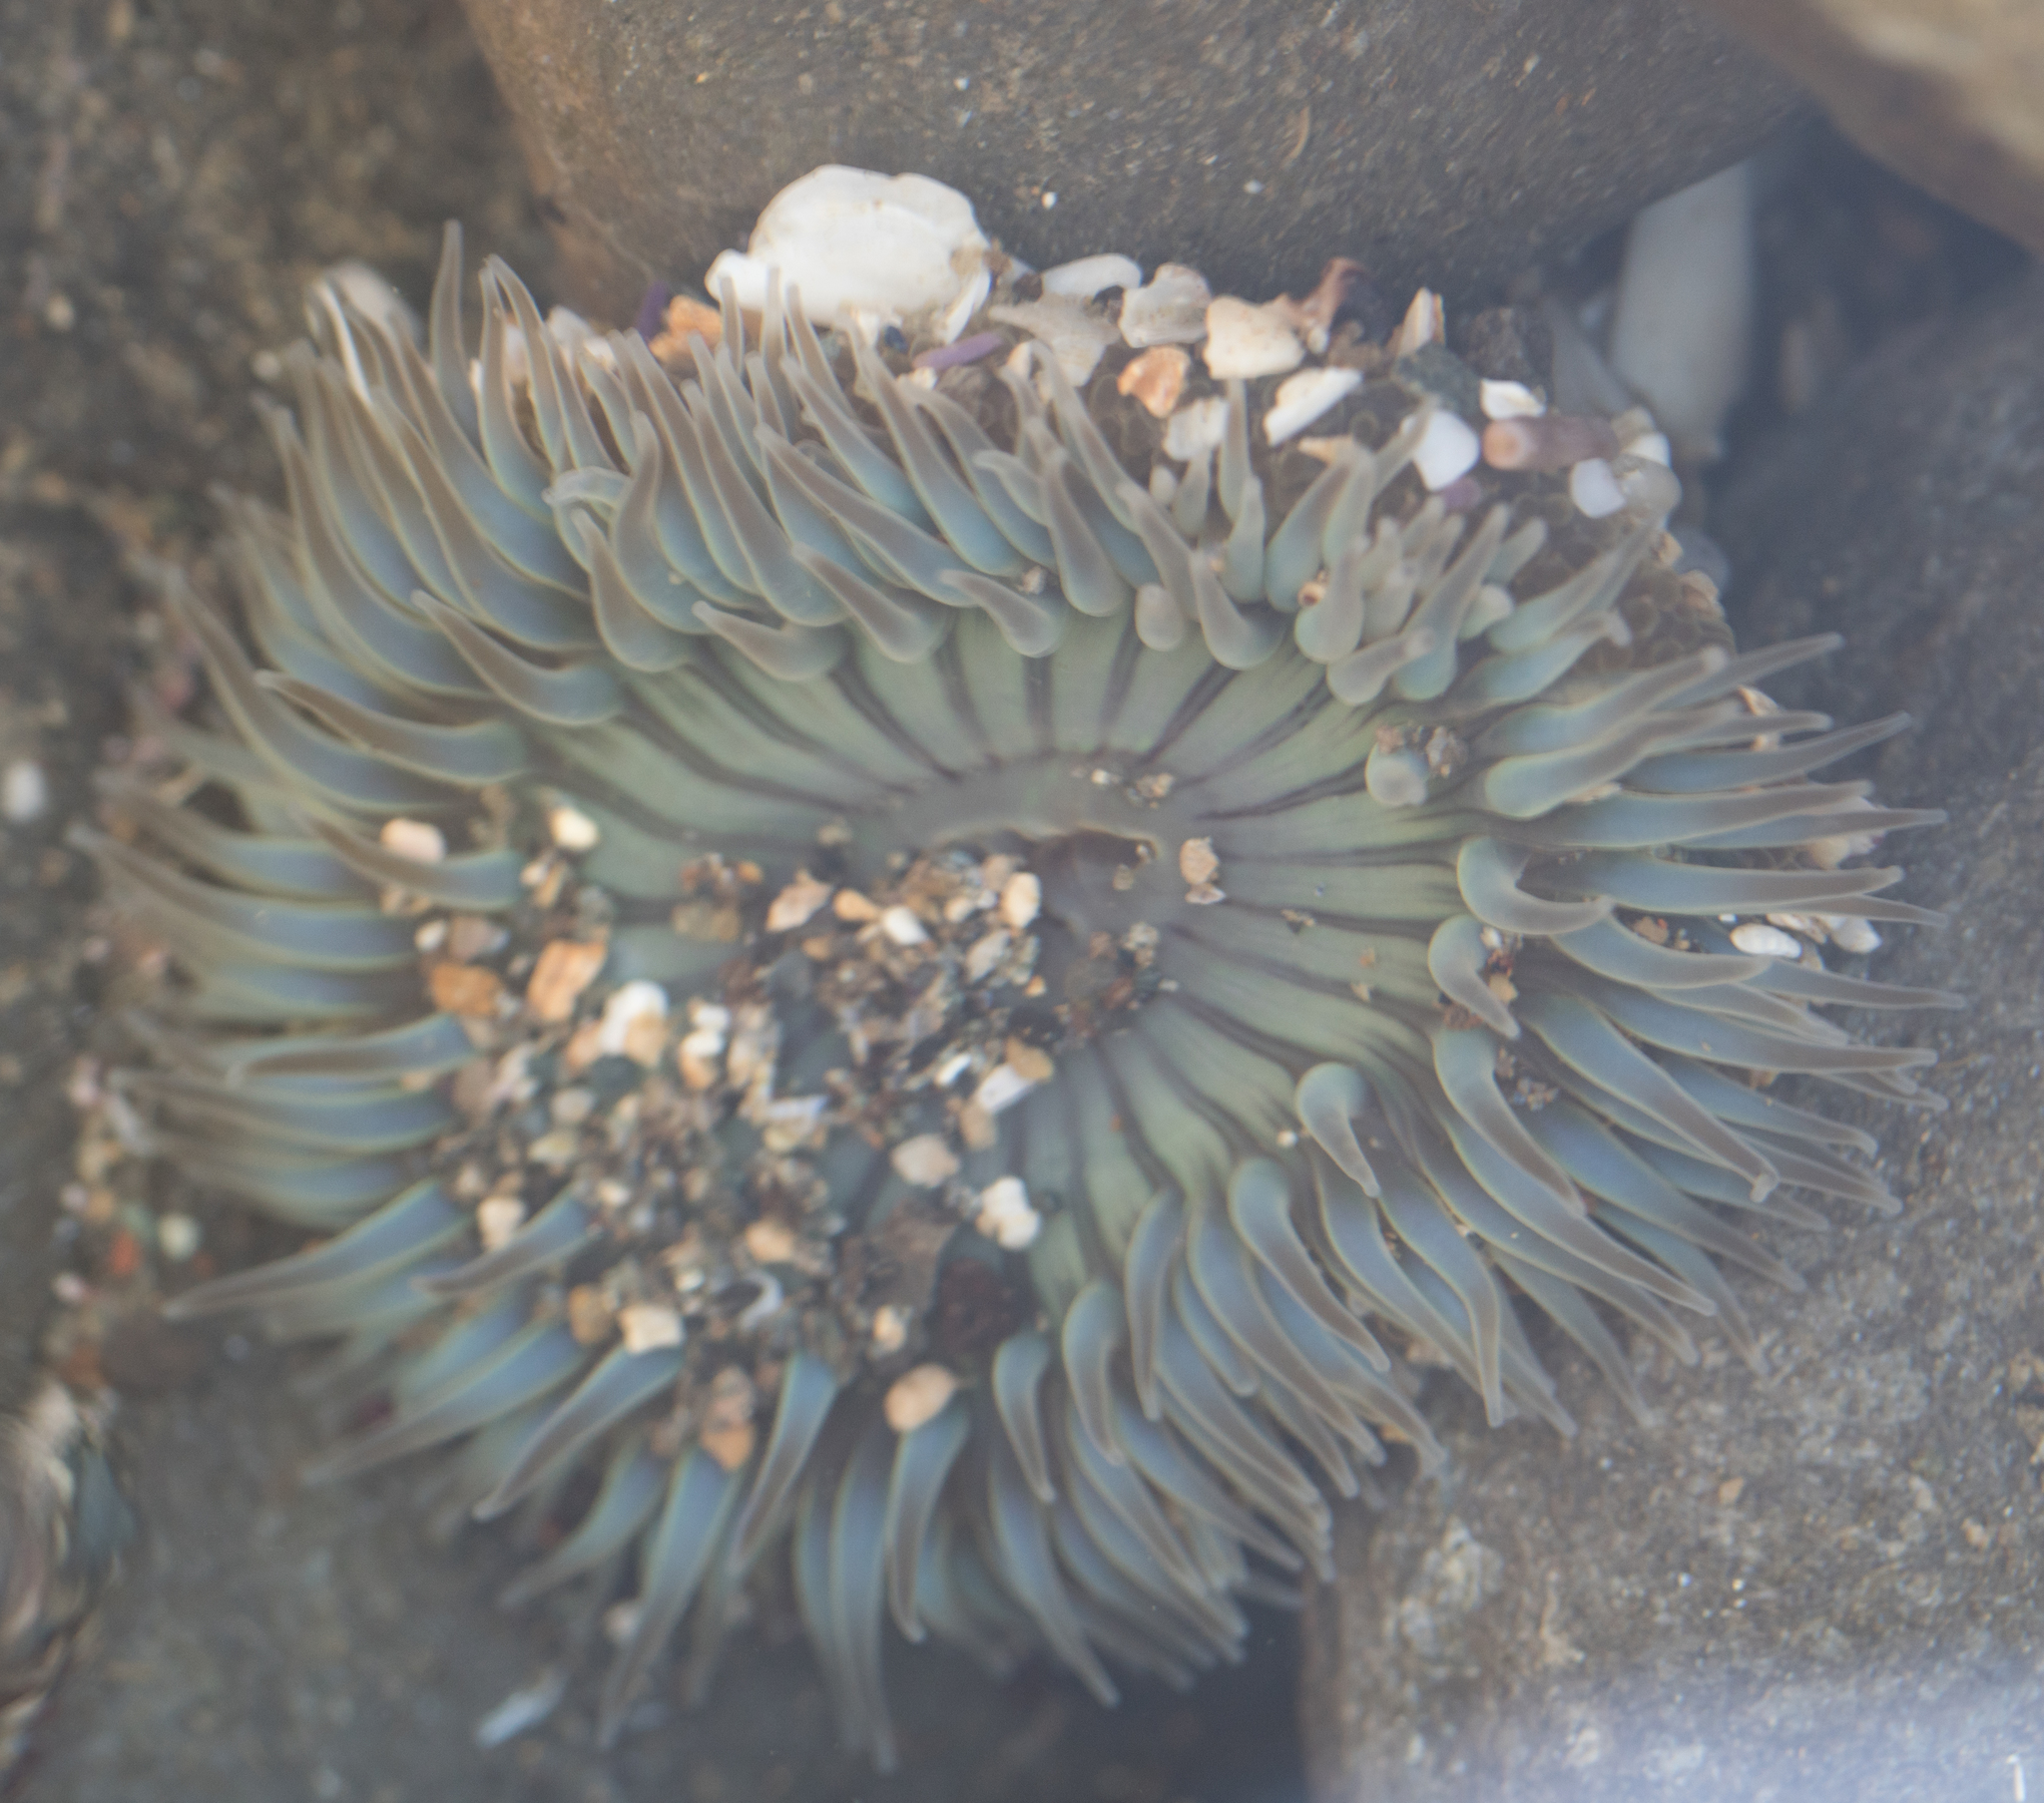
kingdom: Animalia
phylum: Cnidaria
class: Anthozoa
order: Actiniaria
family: Actiniidae
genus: Anthopleura
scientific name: Anthopleura sola
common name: Sun anemone
